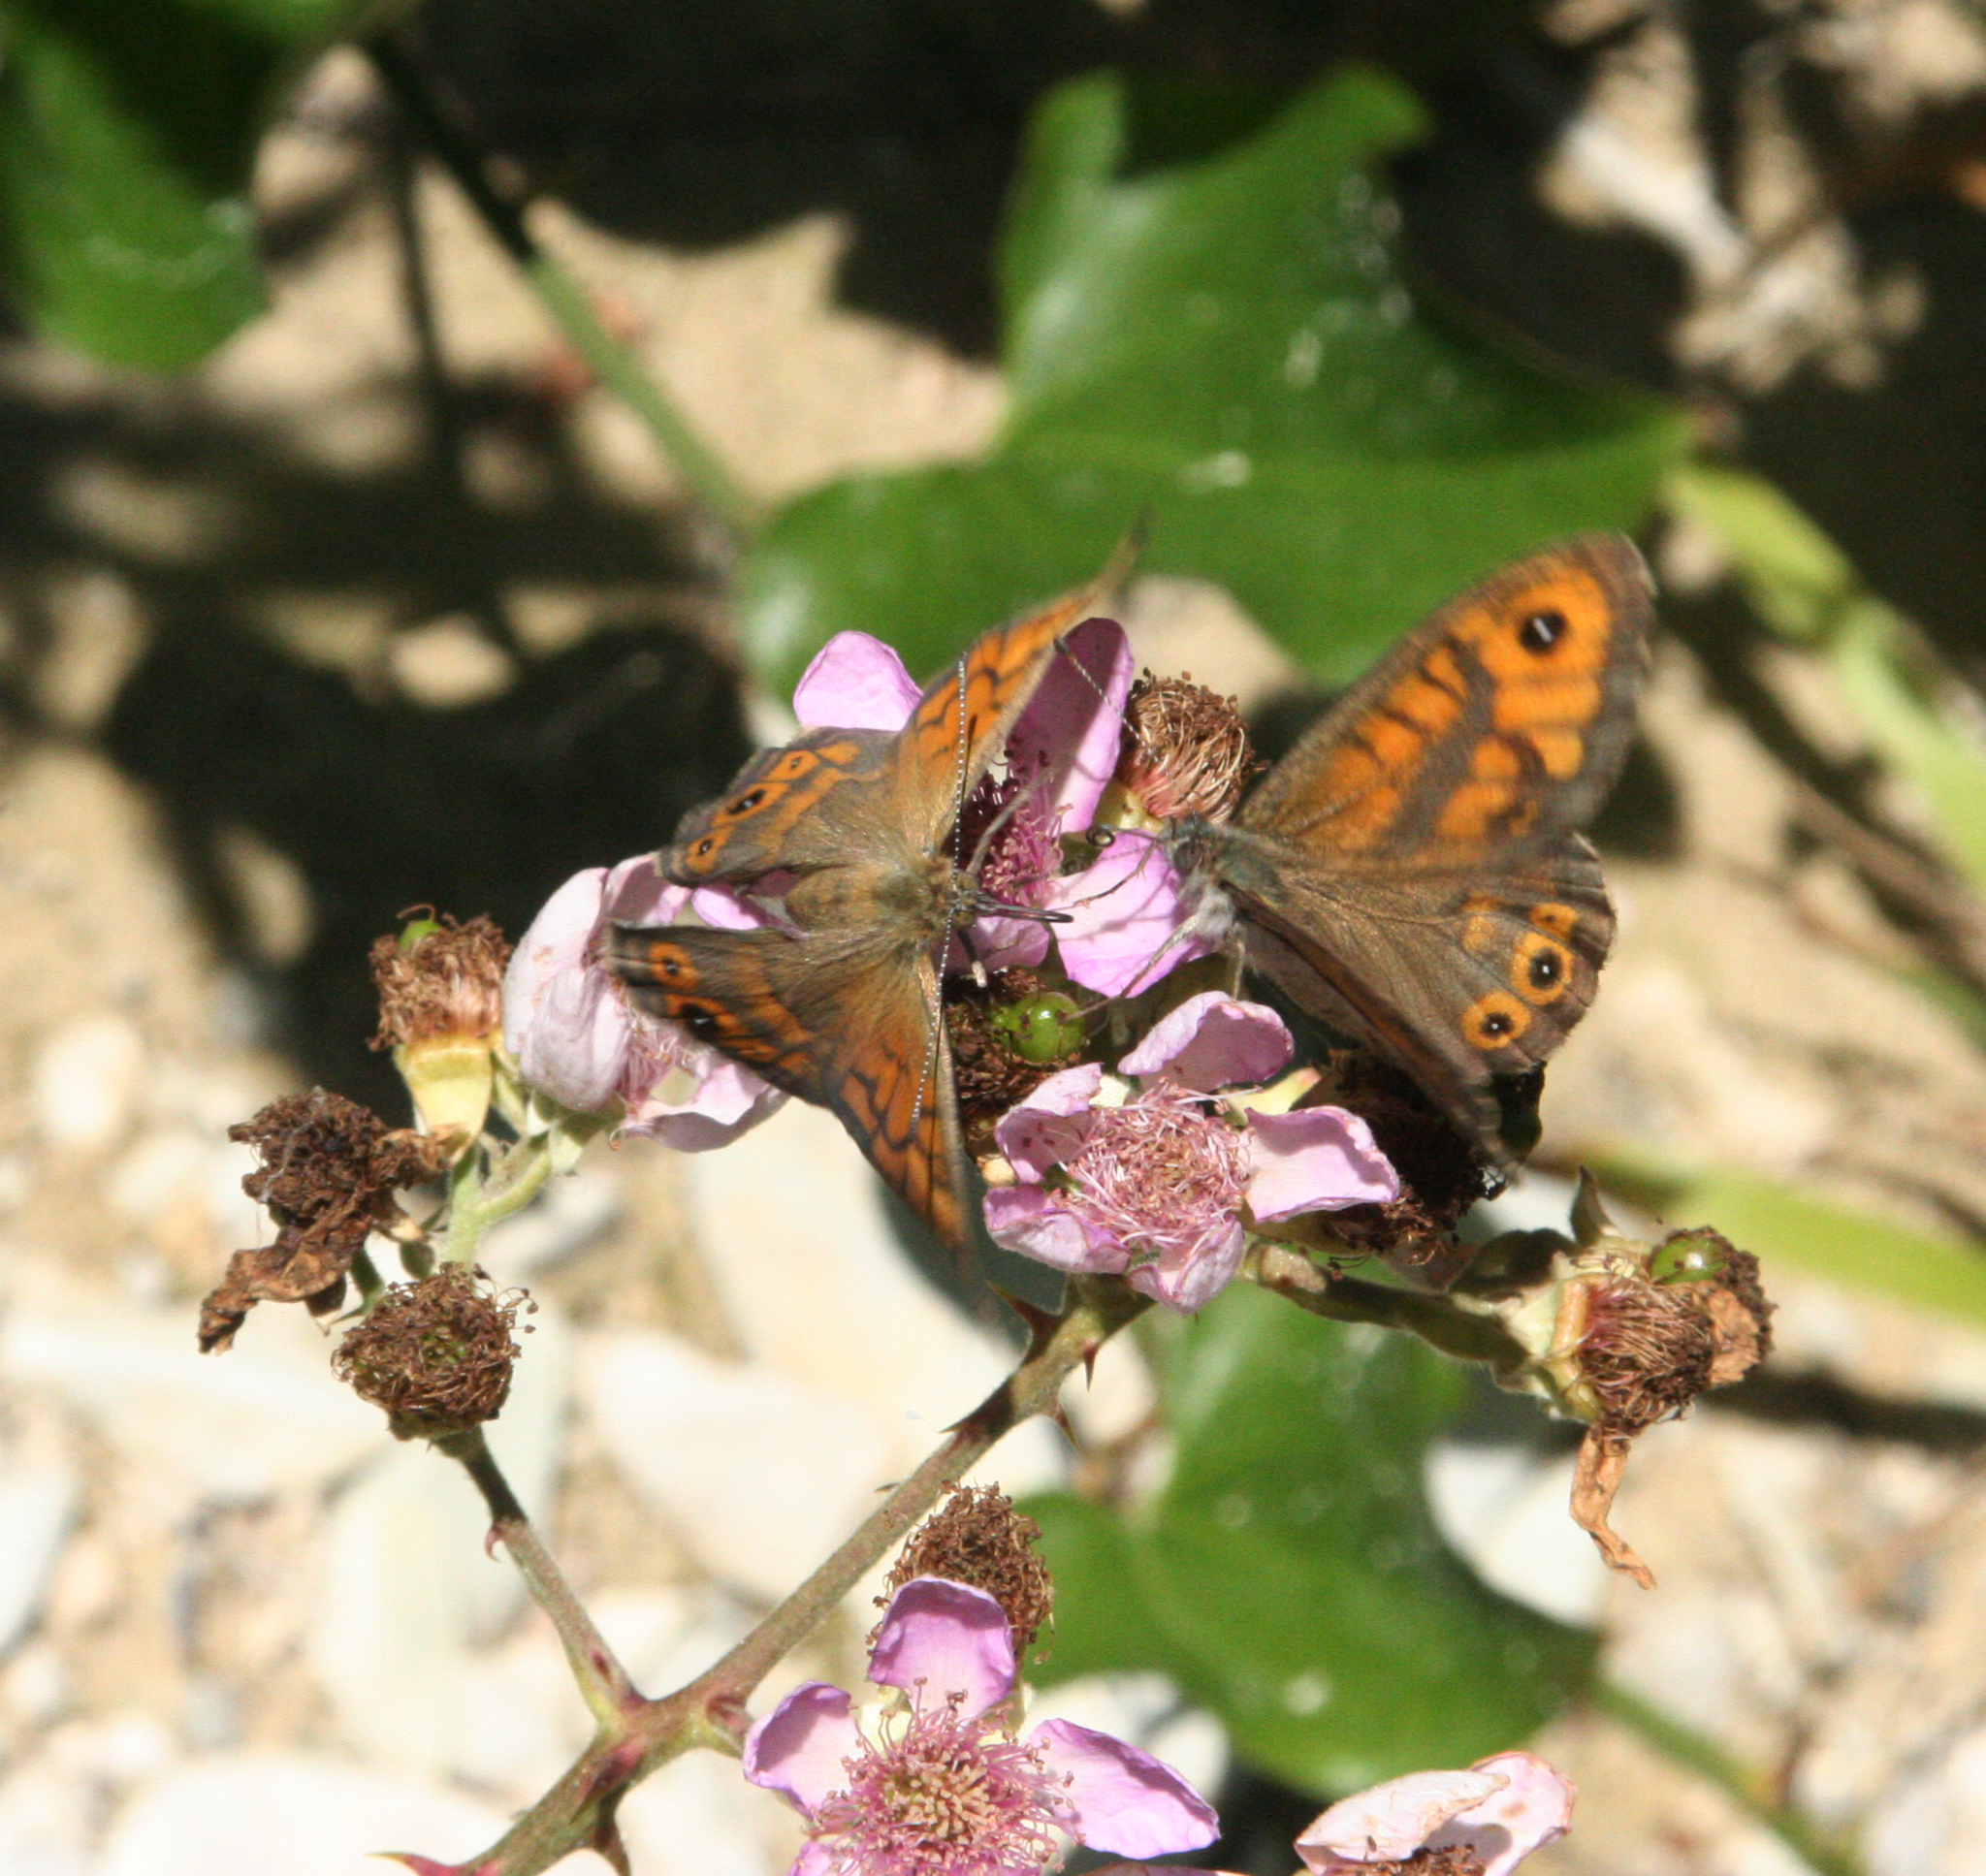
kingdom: Plantae
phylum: Tracheophyta
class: Magnoliopsida
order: Rosales
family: Rosaceae
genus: Rubus
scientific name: Rubus sanctus
